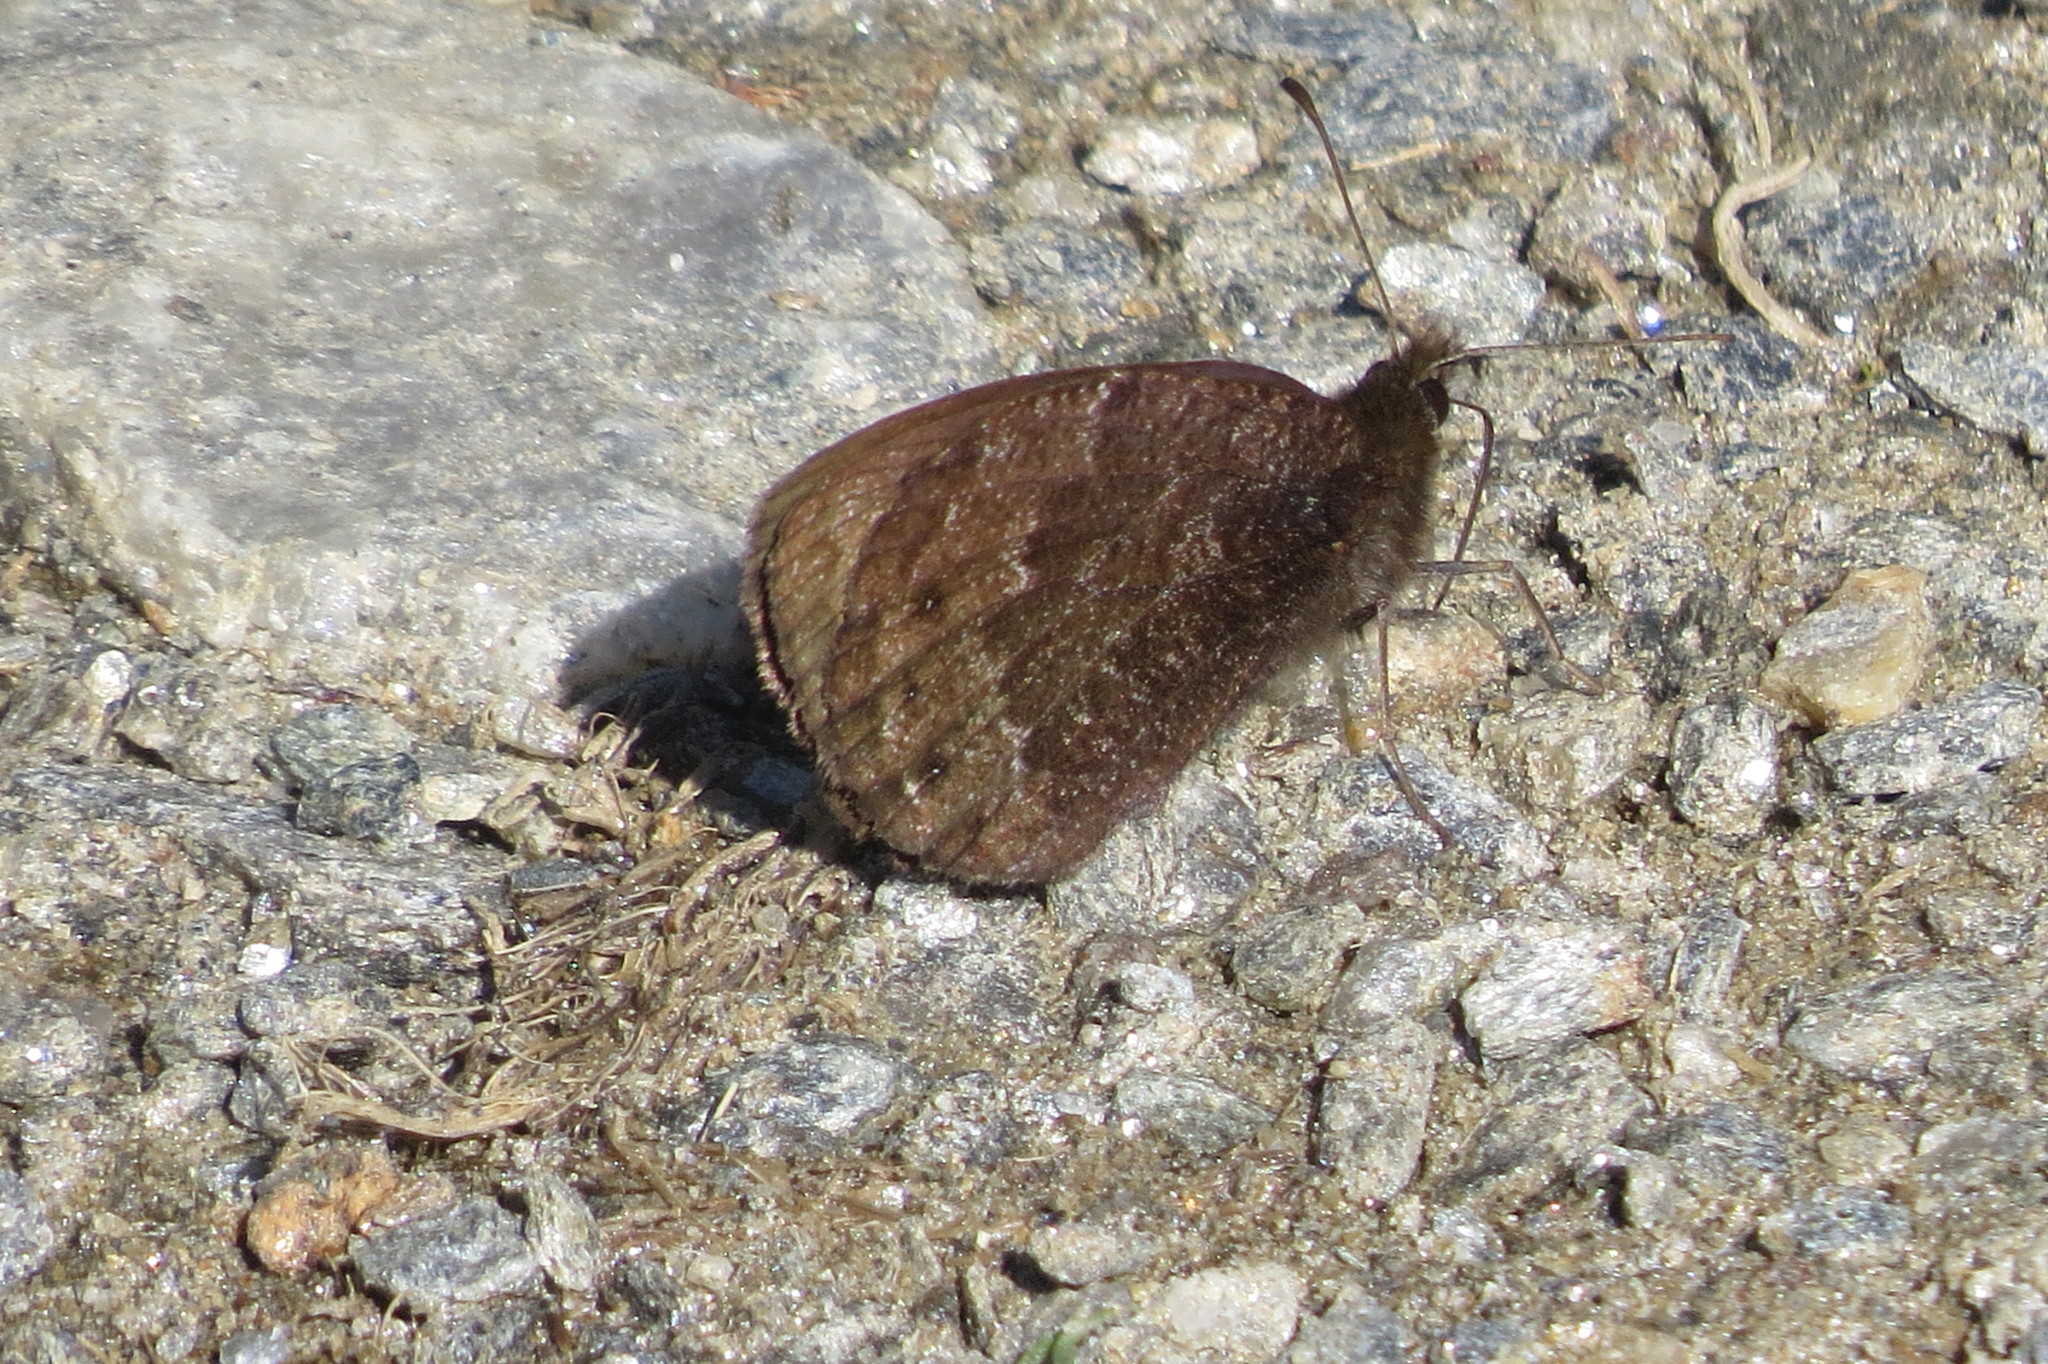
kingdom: Animalia
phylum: Arthropoda
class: Insecta
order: Lepidoptera
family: Nymphalidae
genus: Erebia
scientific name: Erebia montanus
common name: Marbled ringlet
